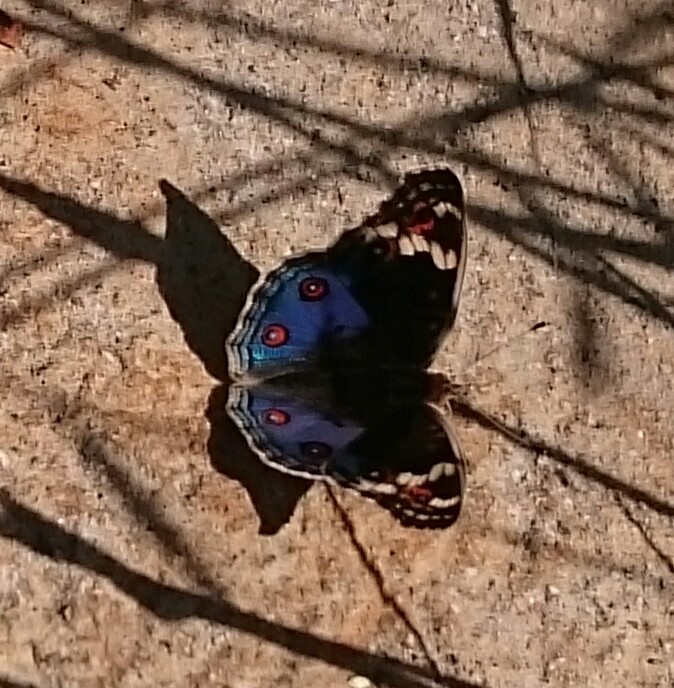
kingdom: Animalia
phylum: Arthropoda
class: Insecta
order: Lepidoptera
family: Nymphalidae
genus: Junonia
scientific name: Junonia orithya
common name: Blue pansy
